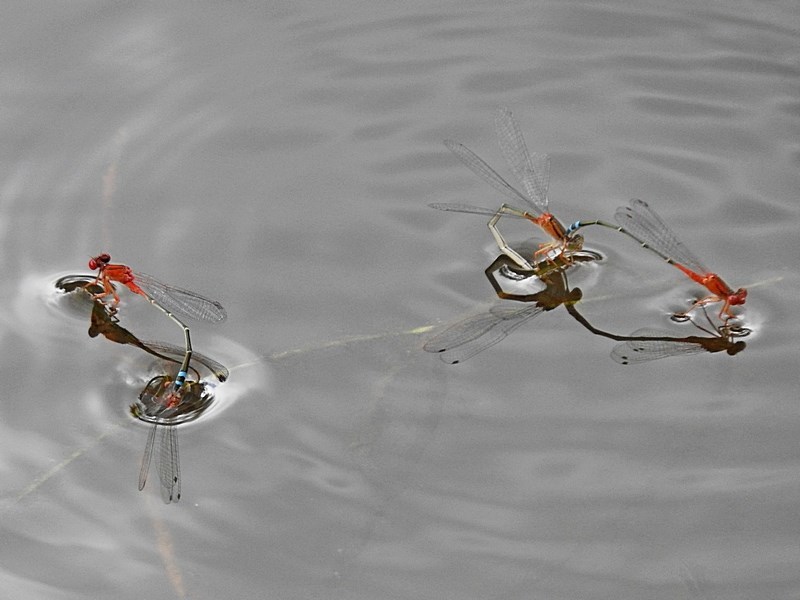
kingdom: Animalia
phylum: Arthropoda
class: Insecta
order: Odonata
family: Coenagrionidae
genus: Xanthagrion
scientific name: Xanthagrion erythroneurum
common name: Red and blue damsel
